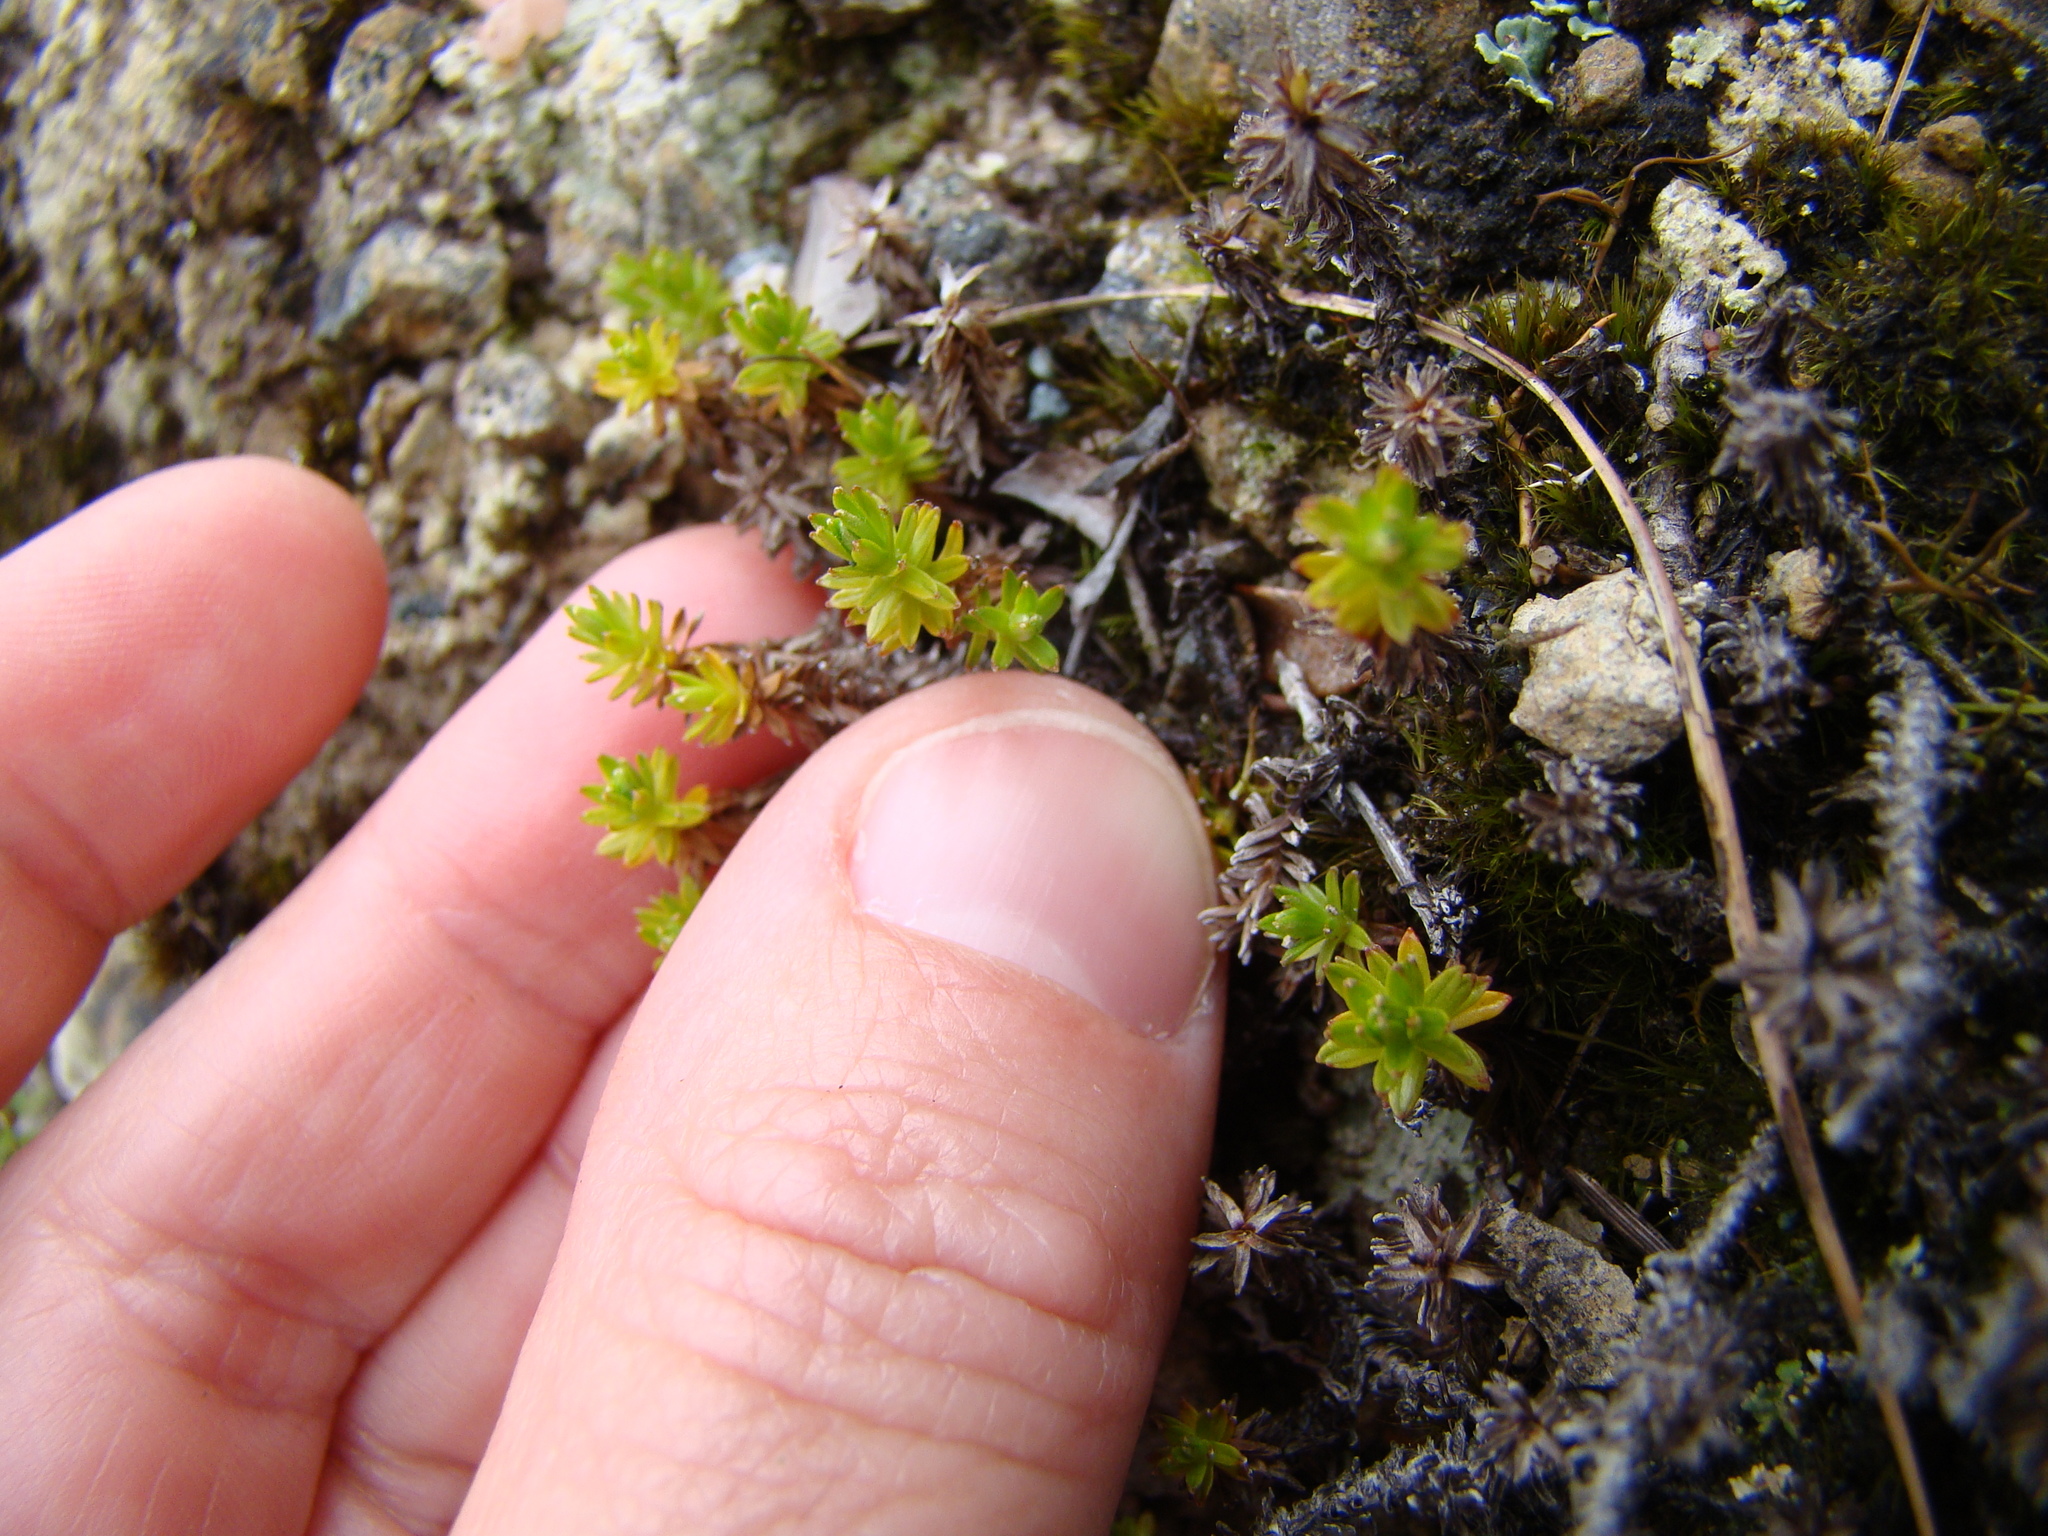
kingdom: Plantae
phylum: Tracheophyta
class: Magnoliopsida
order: Asterales
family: Asteraceae
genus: Raoulia
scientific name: Raoulia glabra
